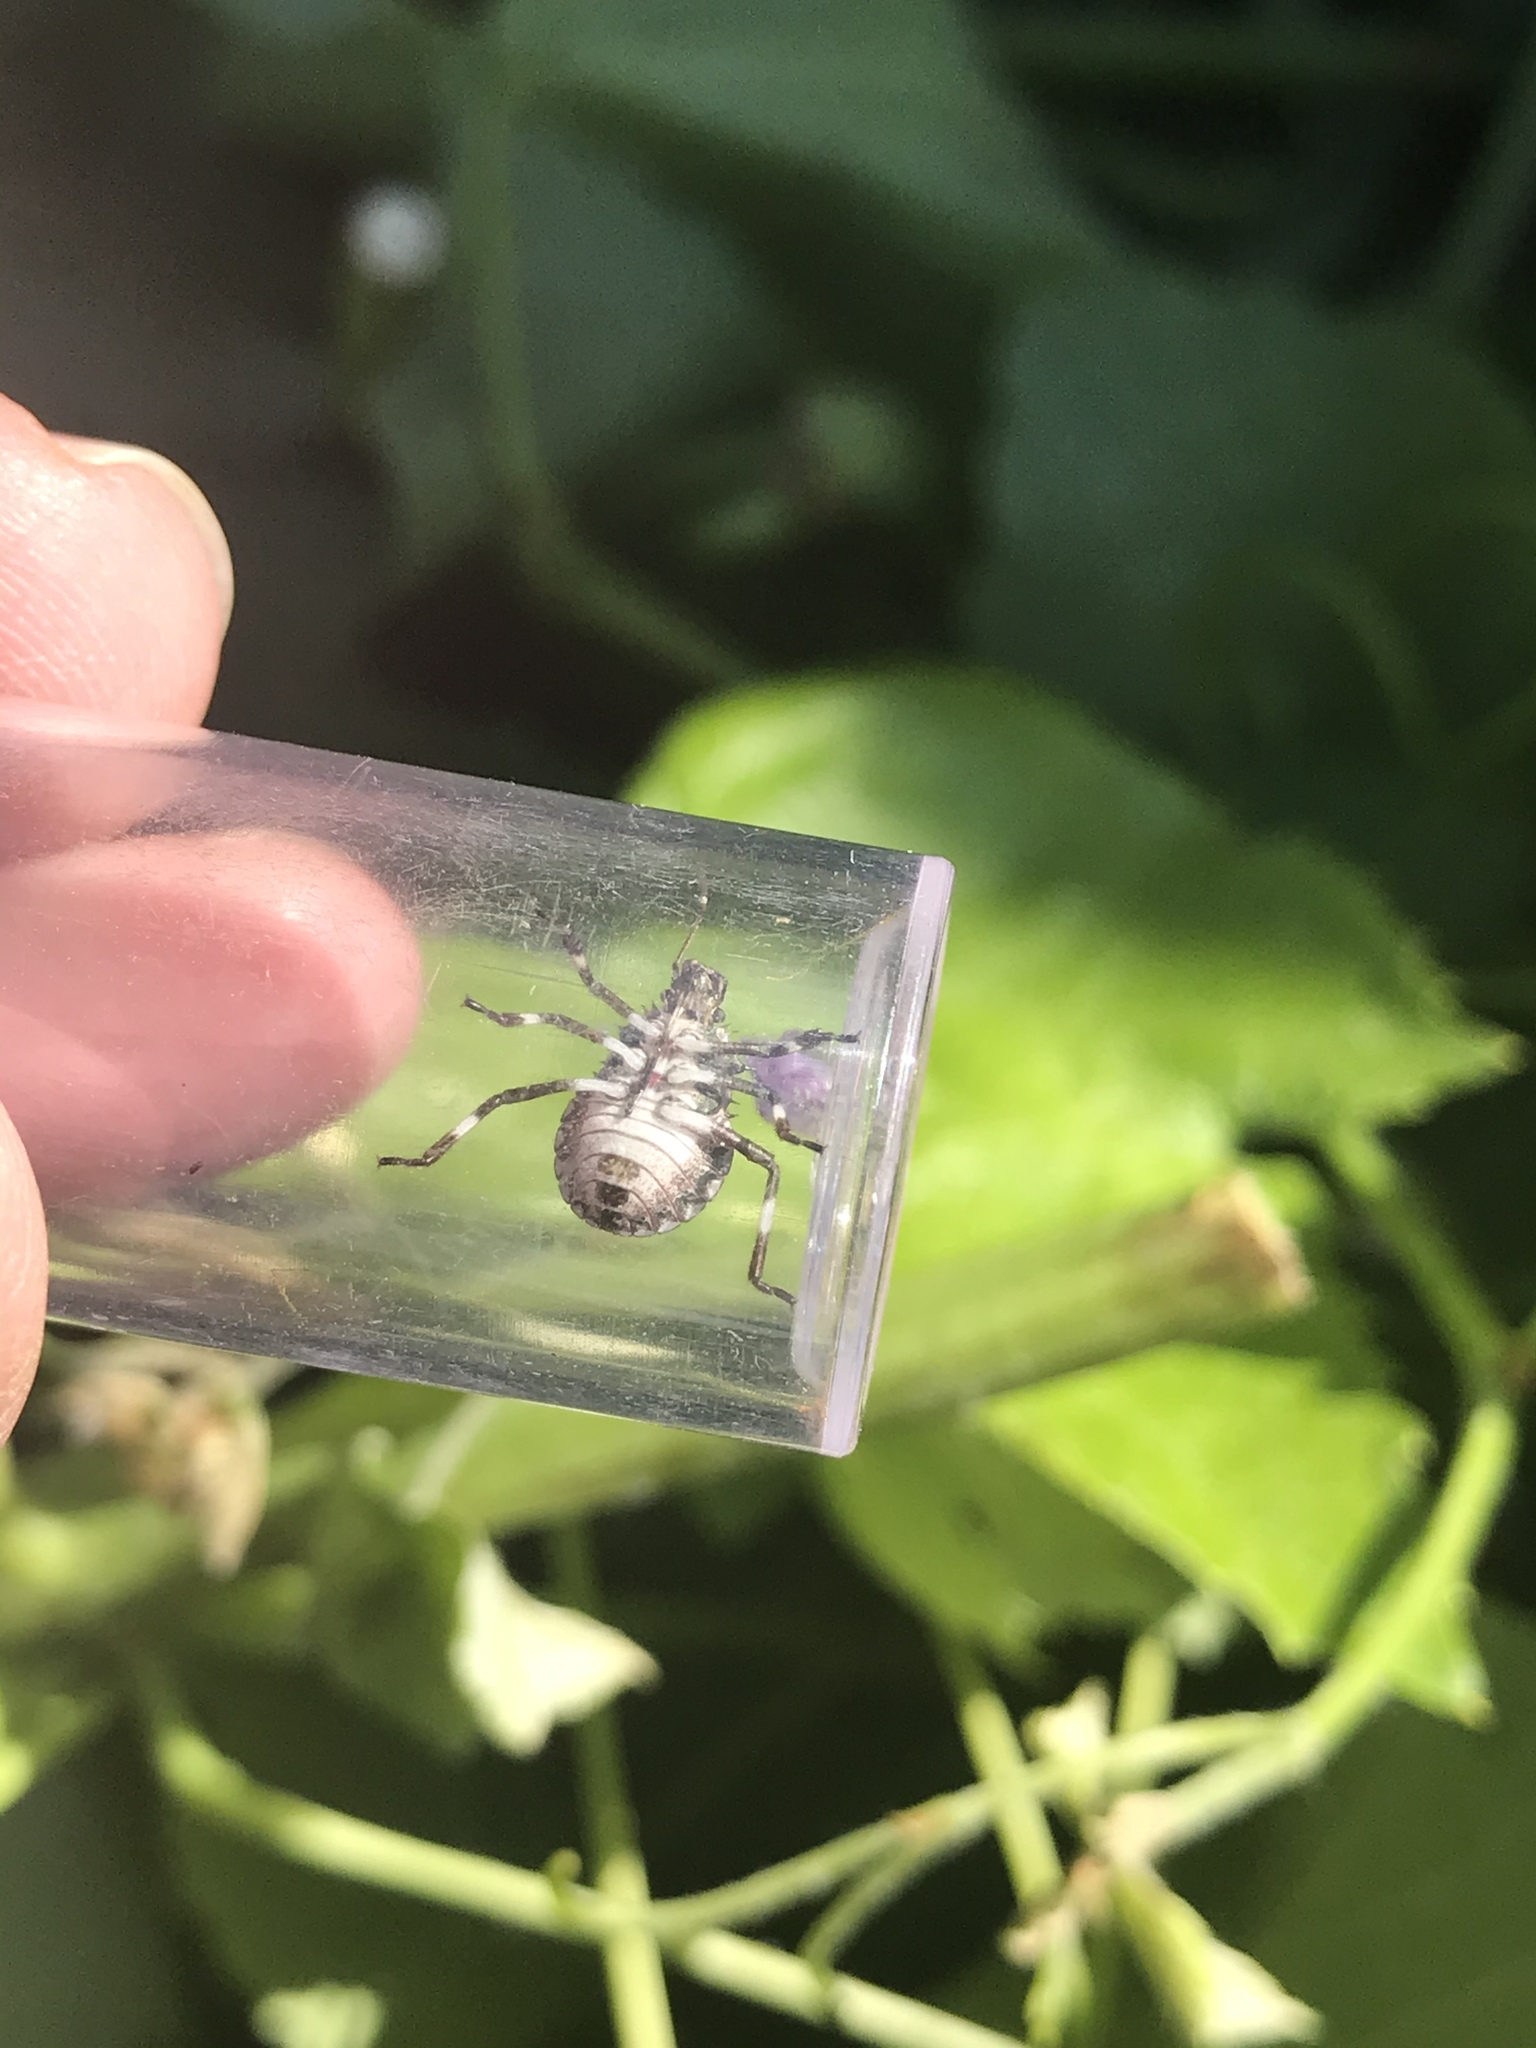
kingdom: Animalia
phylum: Arthropoda
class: Insecta
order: Hemiptera
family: Pentatomidae
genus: Halyomorpha
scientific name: Halyomorpha halys
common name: Brown marmorated stink bug
